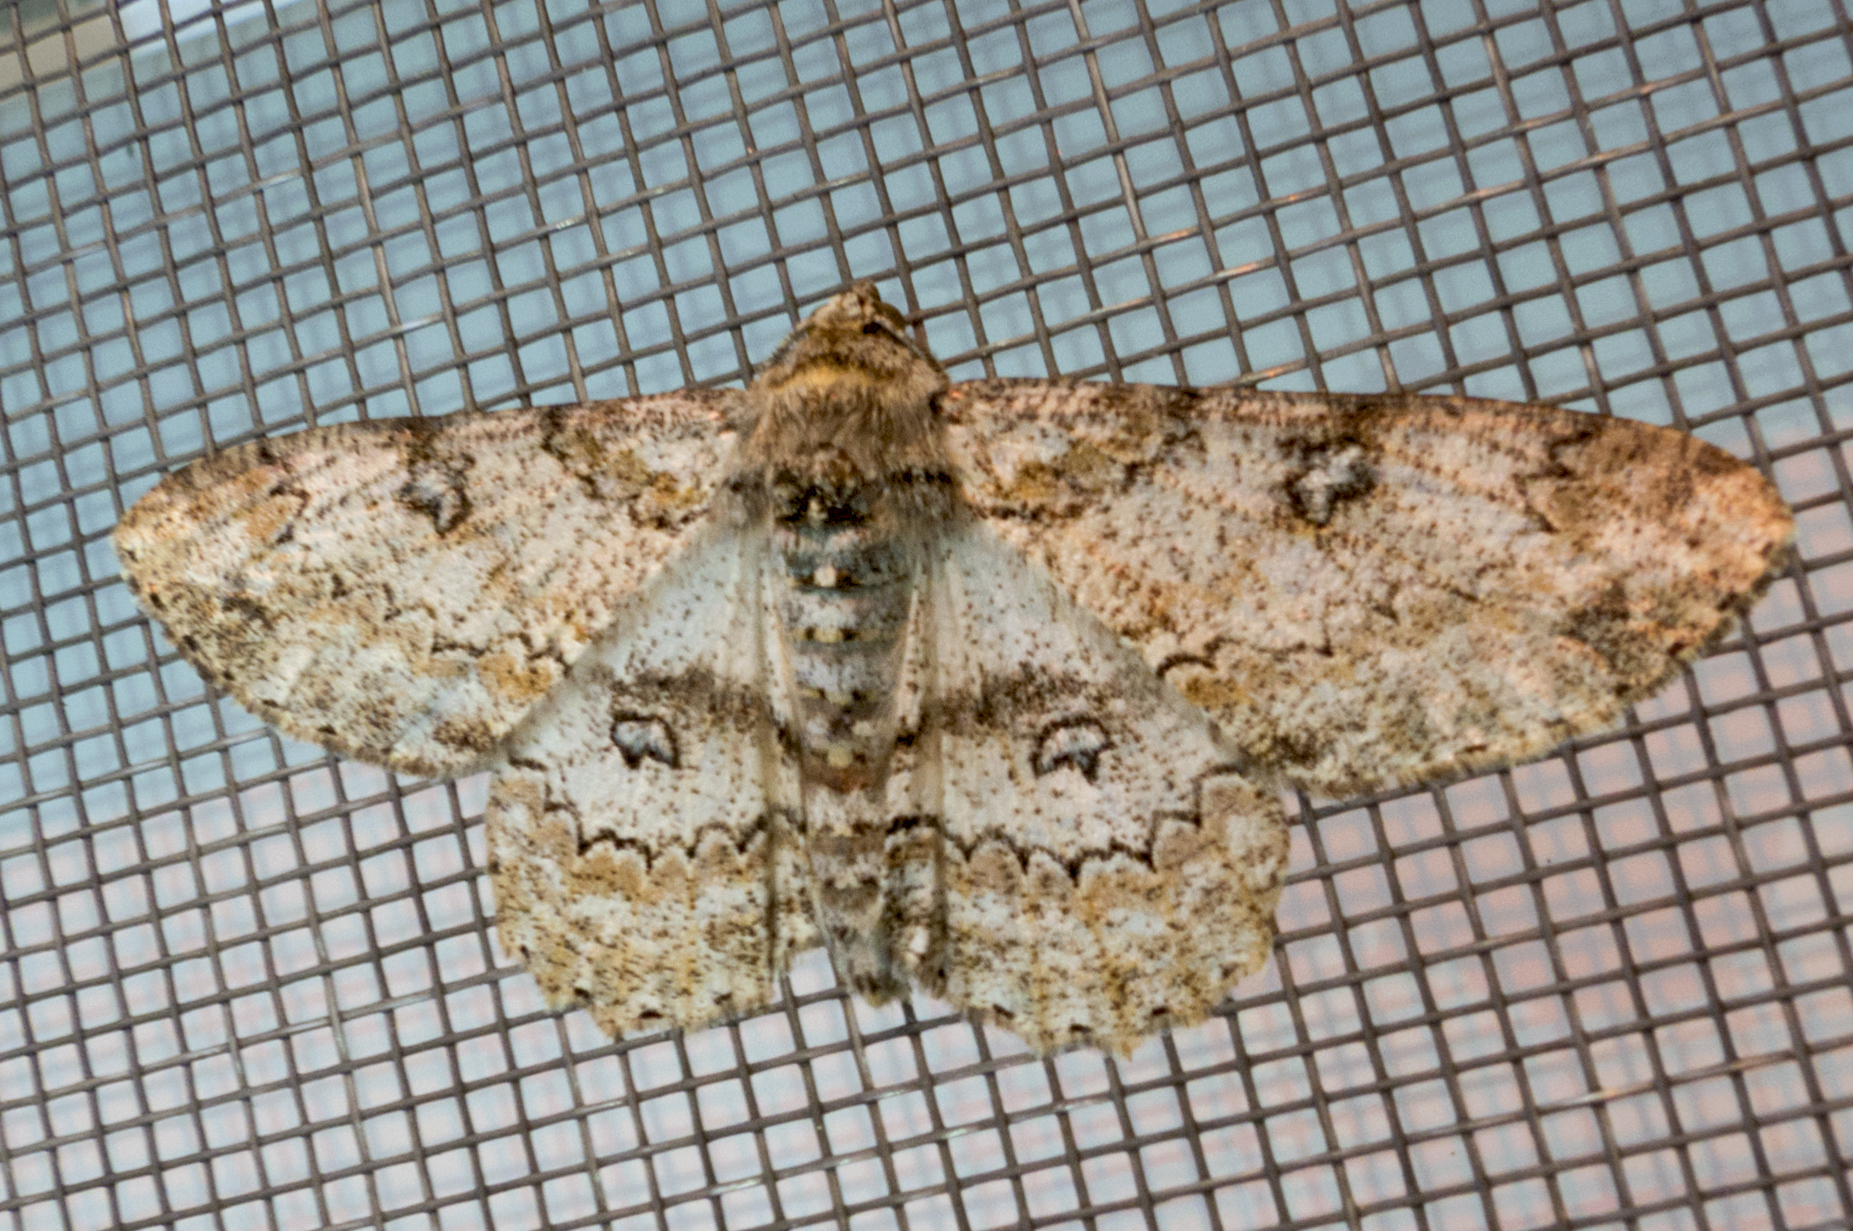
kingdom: Animalia
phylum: Arthropoda
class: Insecta
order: Lepidoptera
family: Geometridae
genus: Ascotis
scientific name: Ascotis selenaria
